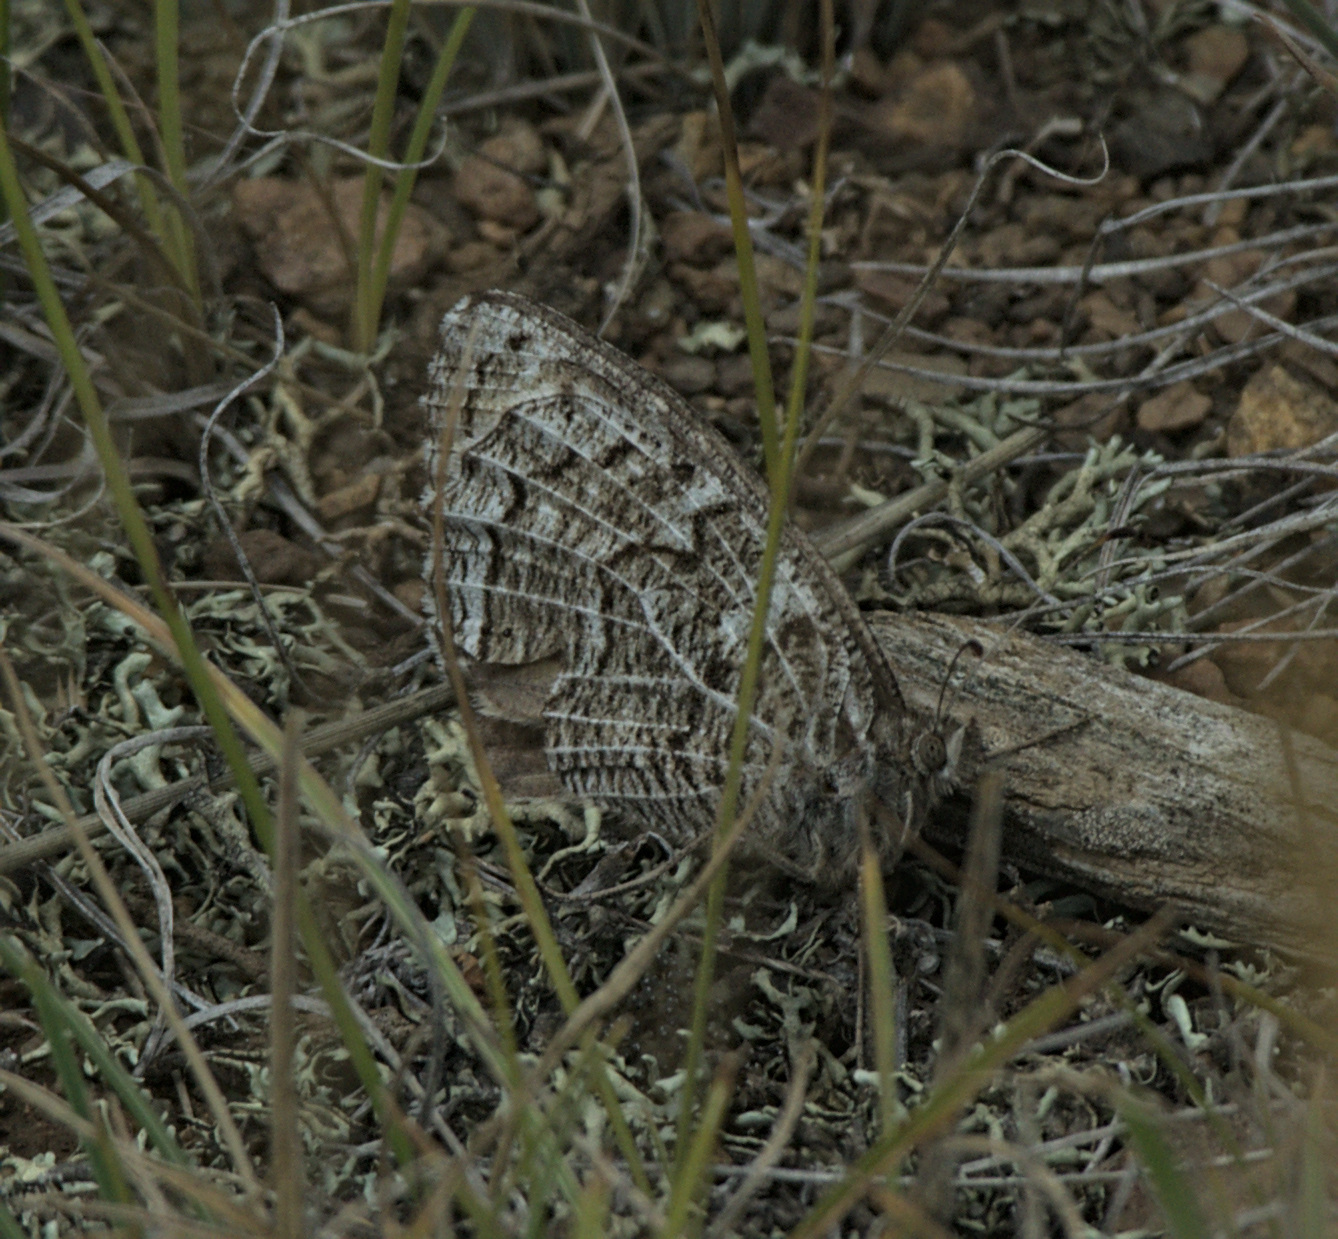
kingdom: Animalia
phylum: Arthropoda
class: Insecta
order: Lepidoptera
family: Nymphalidae
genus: Hipparchia
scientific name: Hipparchia autonoe
